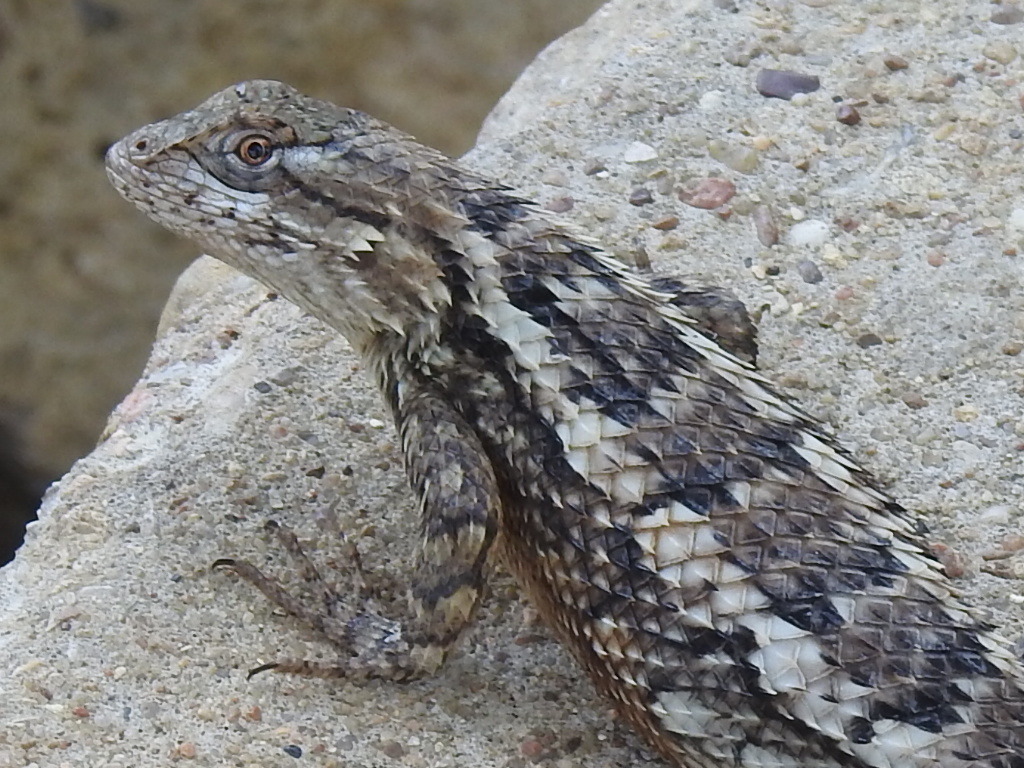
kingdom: Animalia
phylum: Chordata
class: Squamata
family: Phrynosomatidae
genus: Sceloporus
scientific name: Sceloporus olivaceus
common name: Texas spiny lizard
